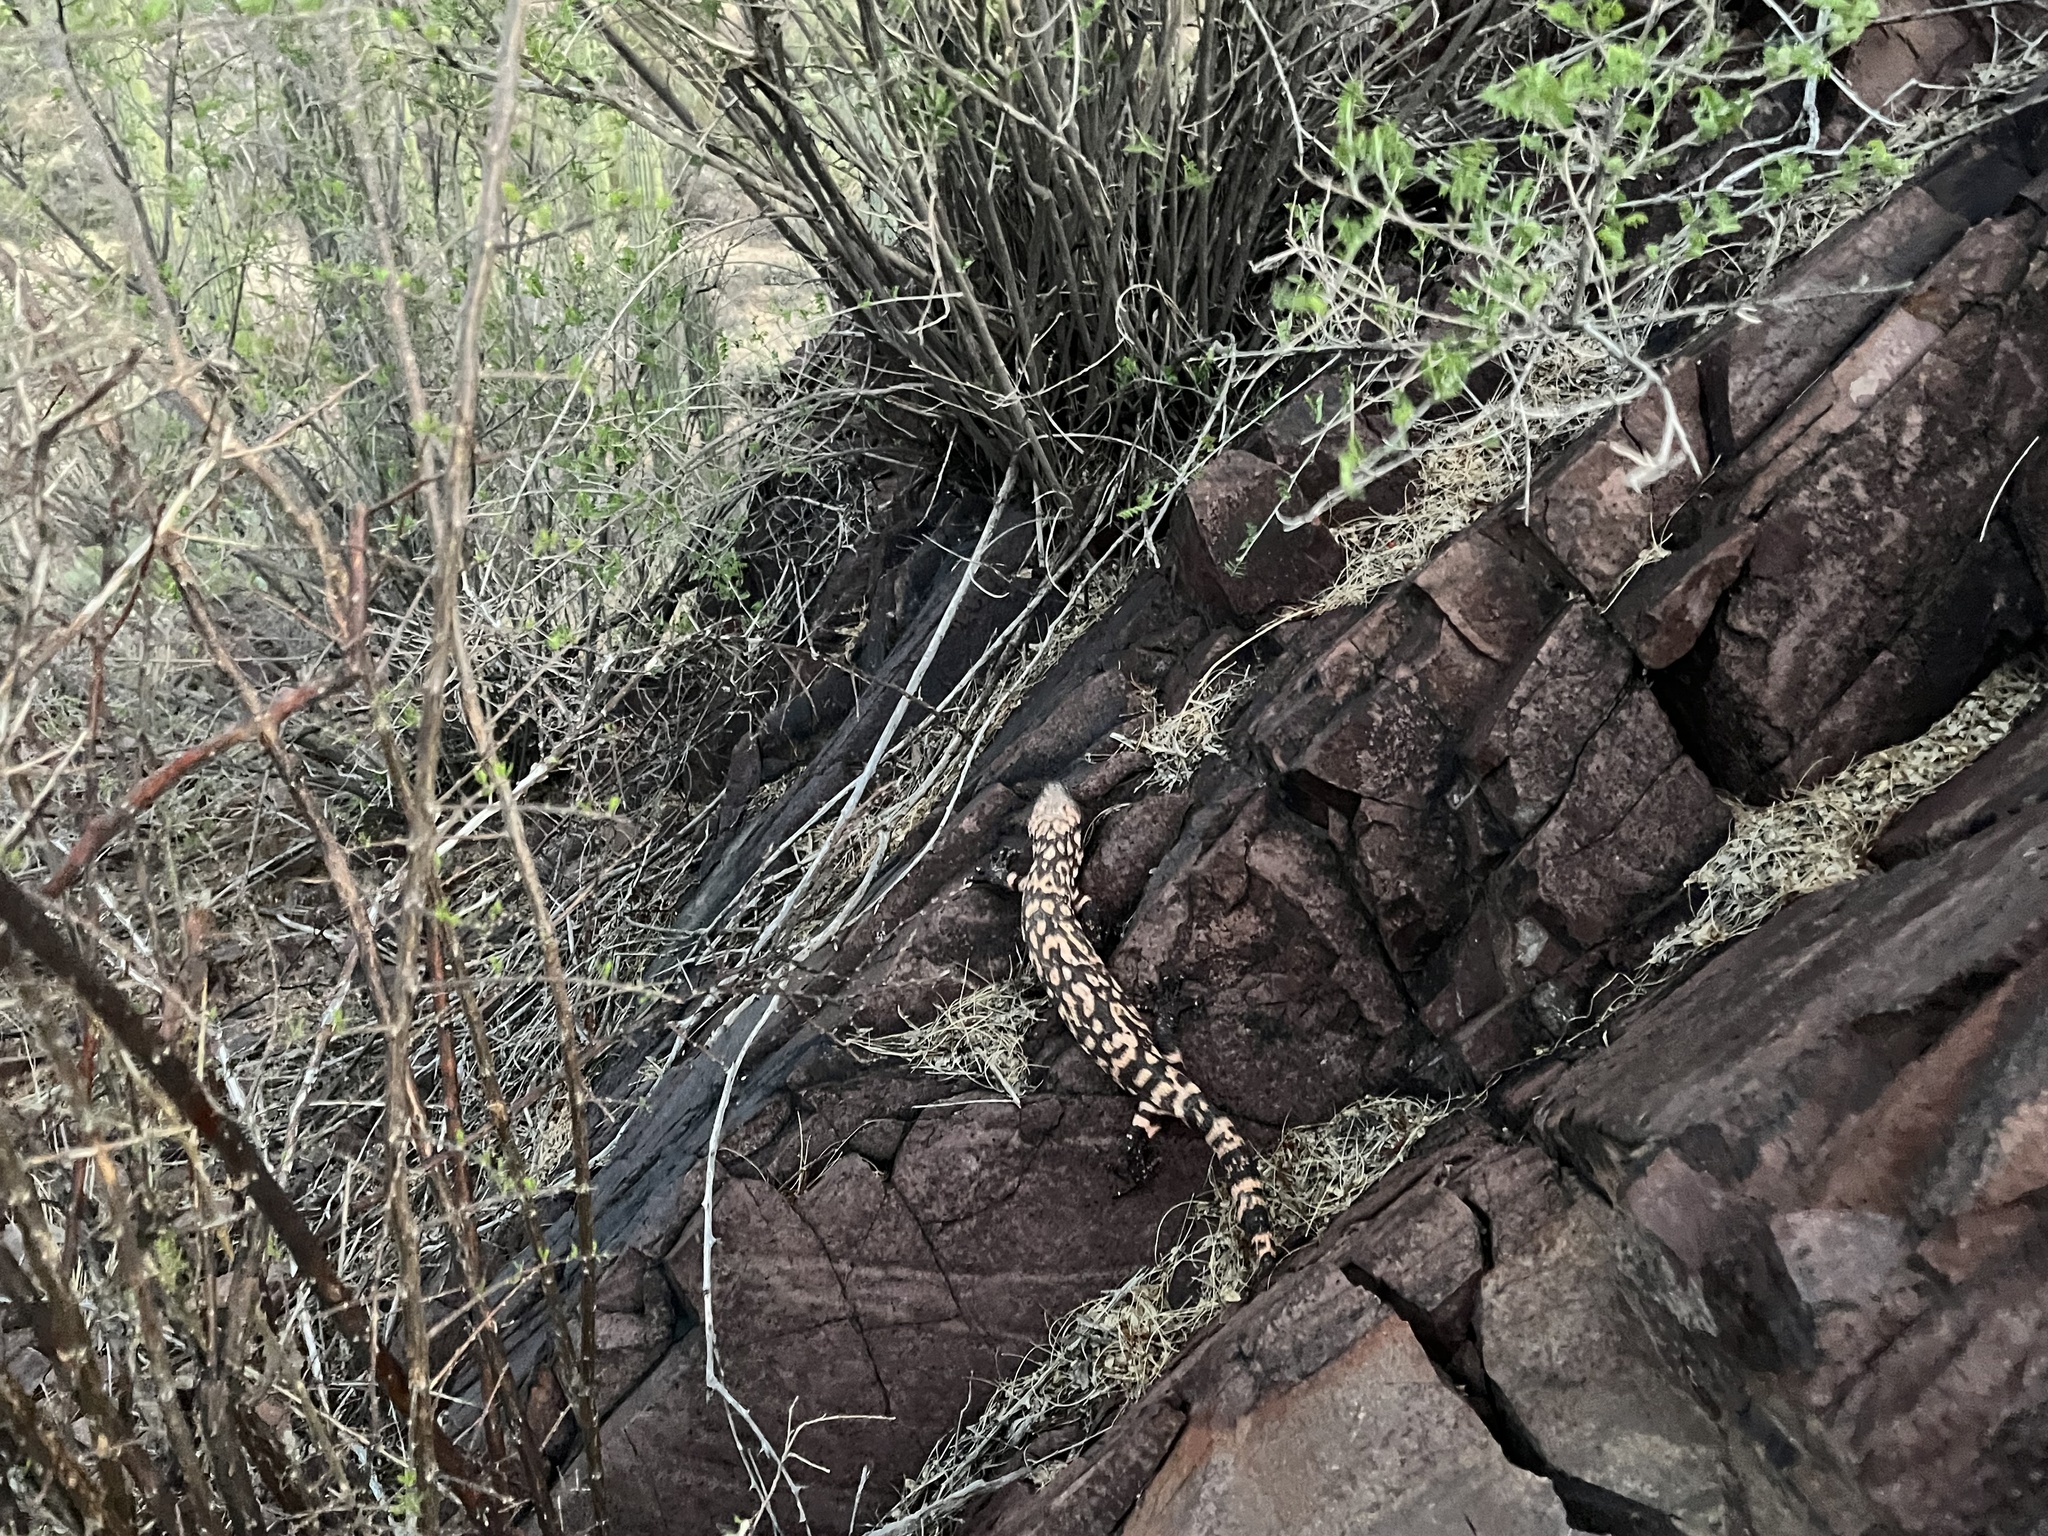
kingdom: Animalia
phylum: Chordata
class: Squamata
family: Helodermatidae
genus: Heloderma
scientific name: Heloderma suspectum
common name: Gila monster
